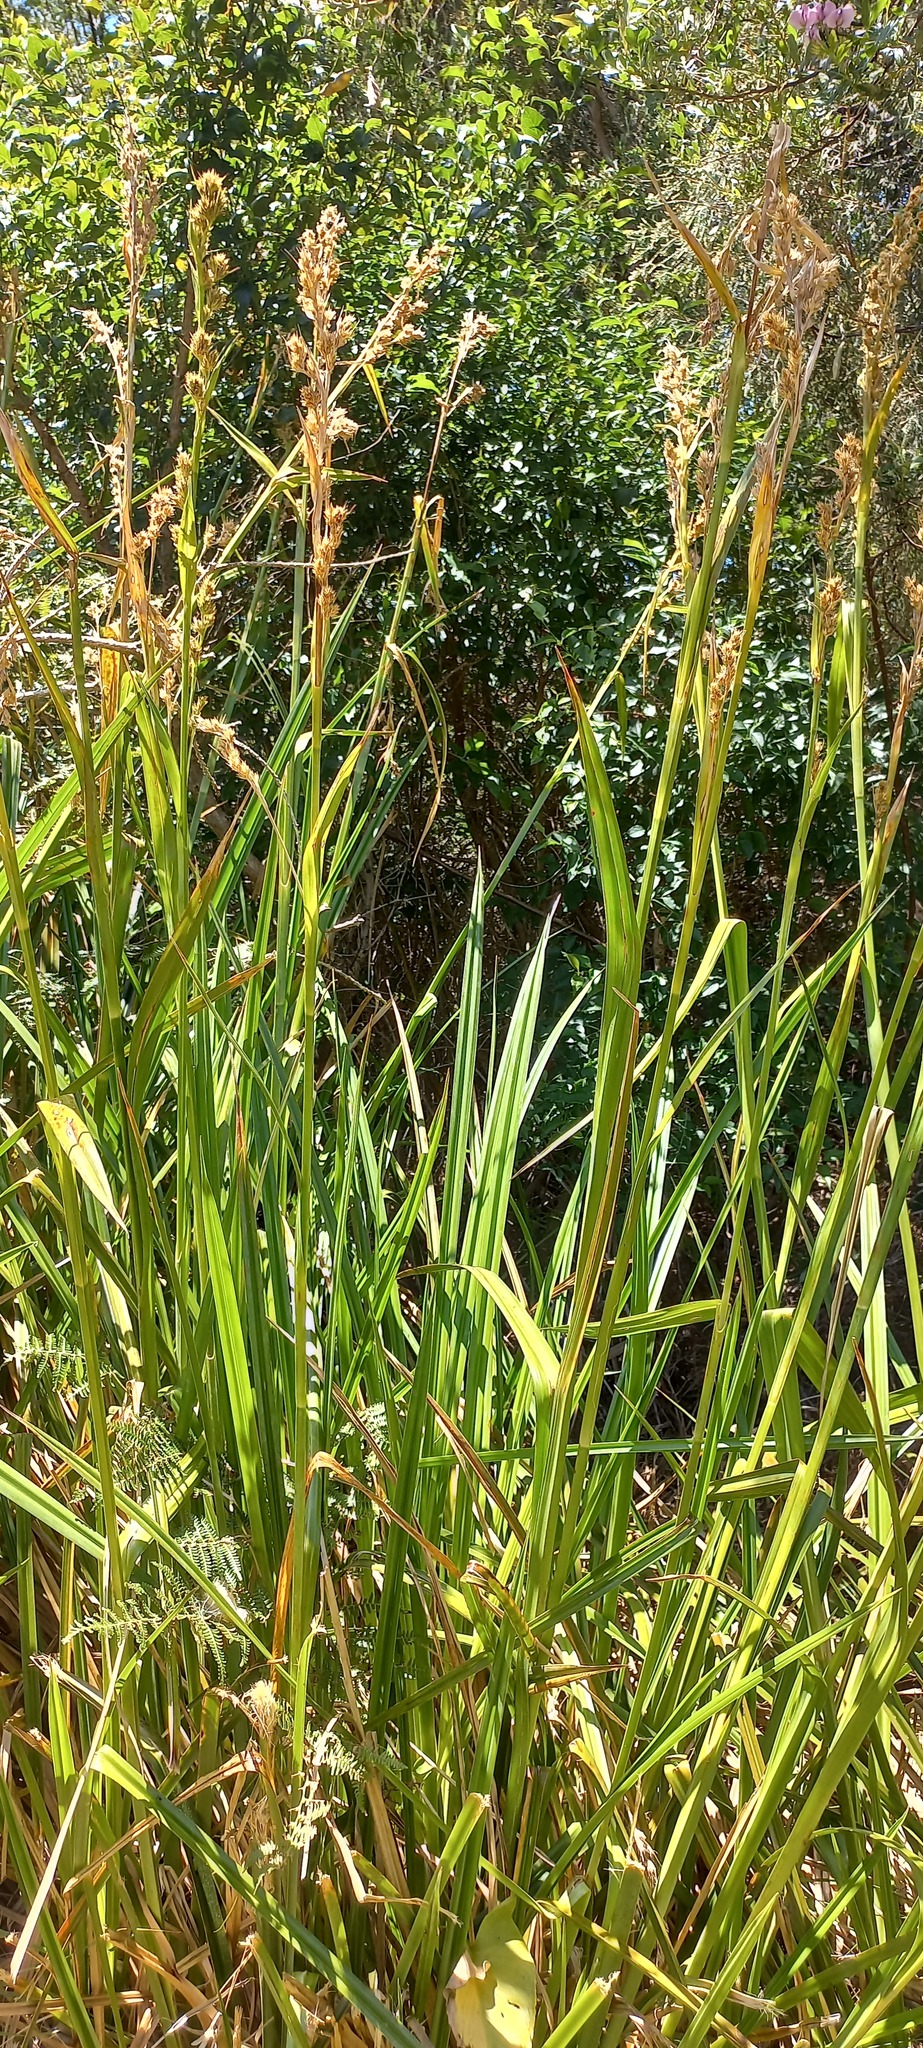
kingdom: Plantae
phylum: Tracheophyta
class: Liliopsida
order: Poales
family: Cyperaceae
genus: Carpha
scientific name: Carpha glomerata
